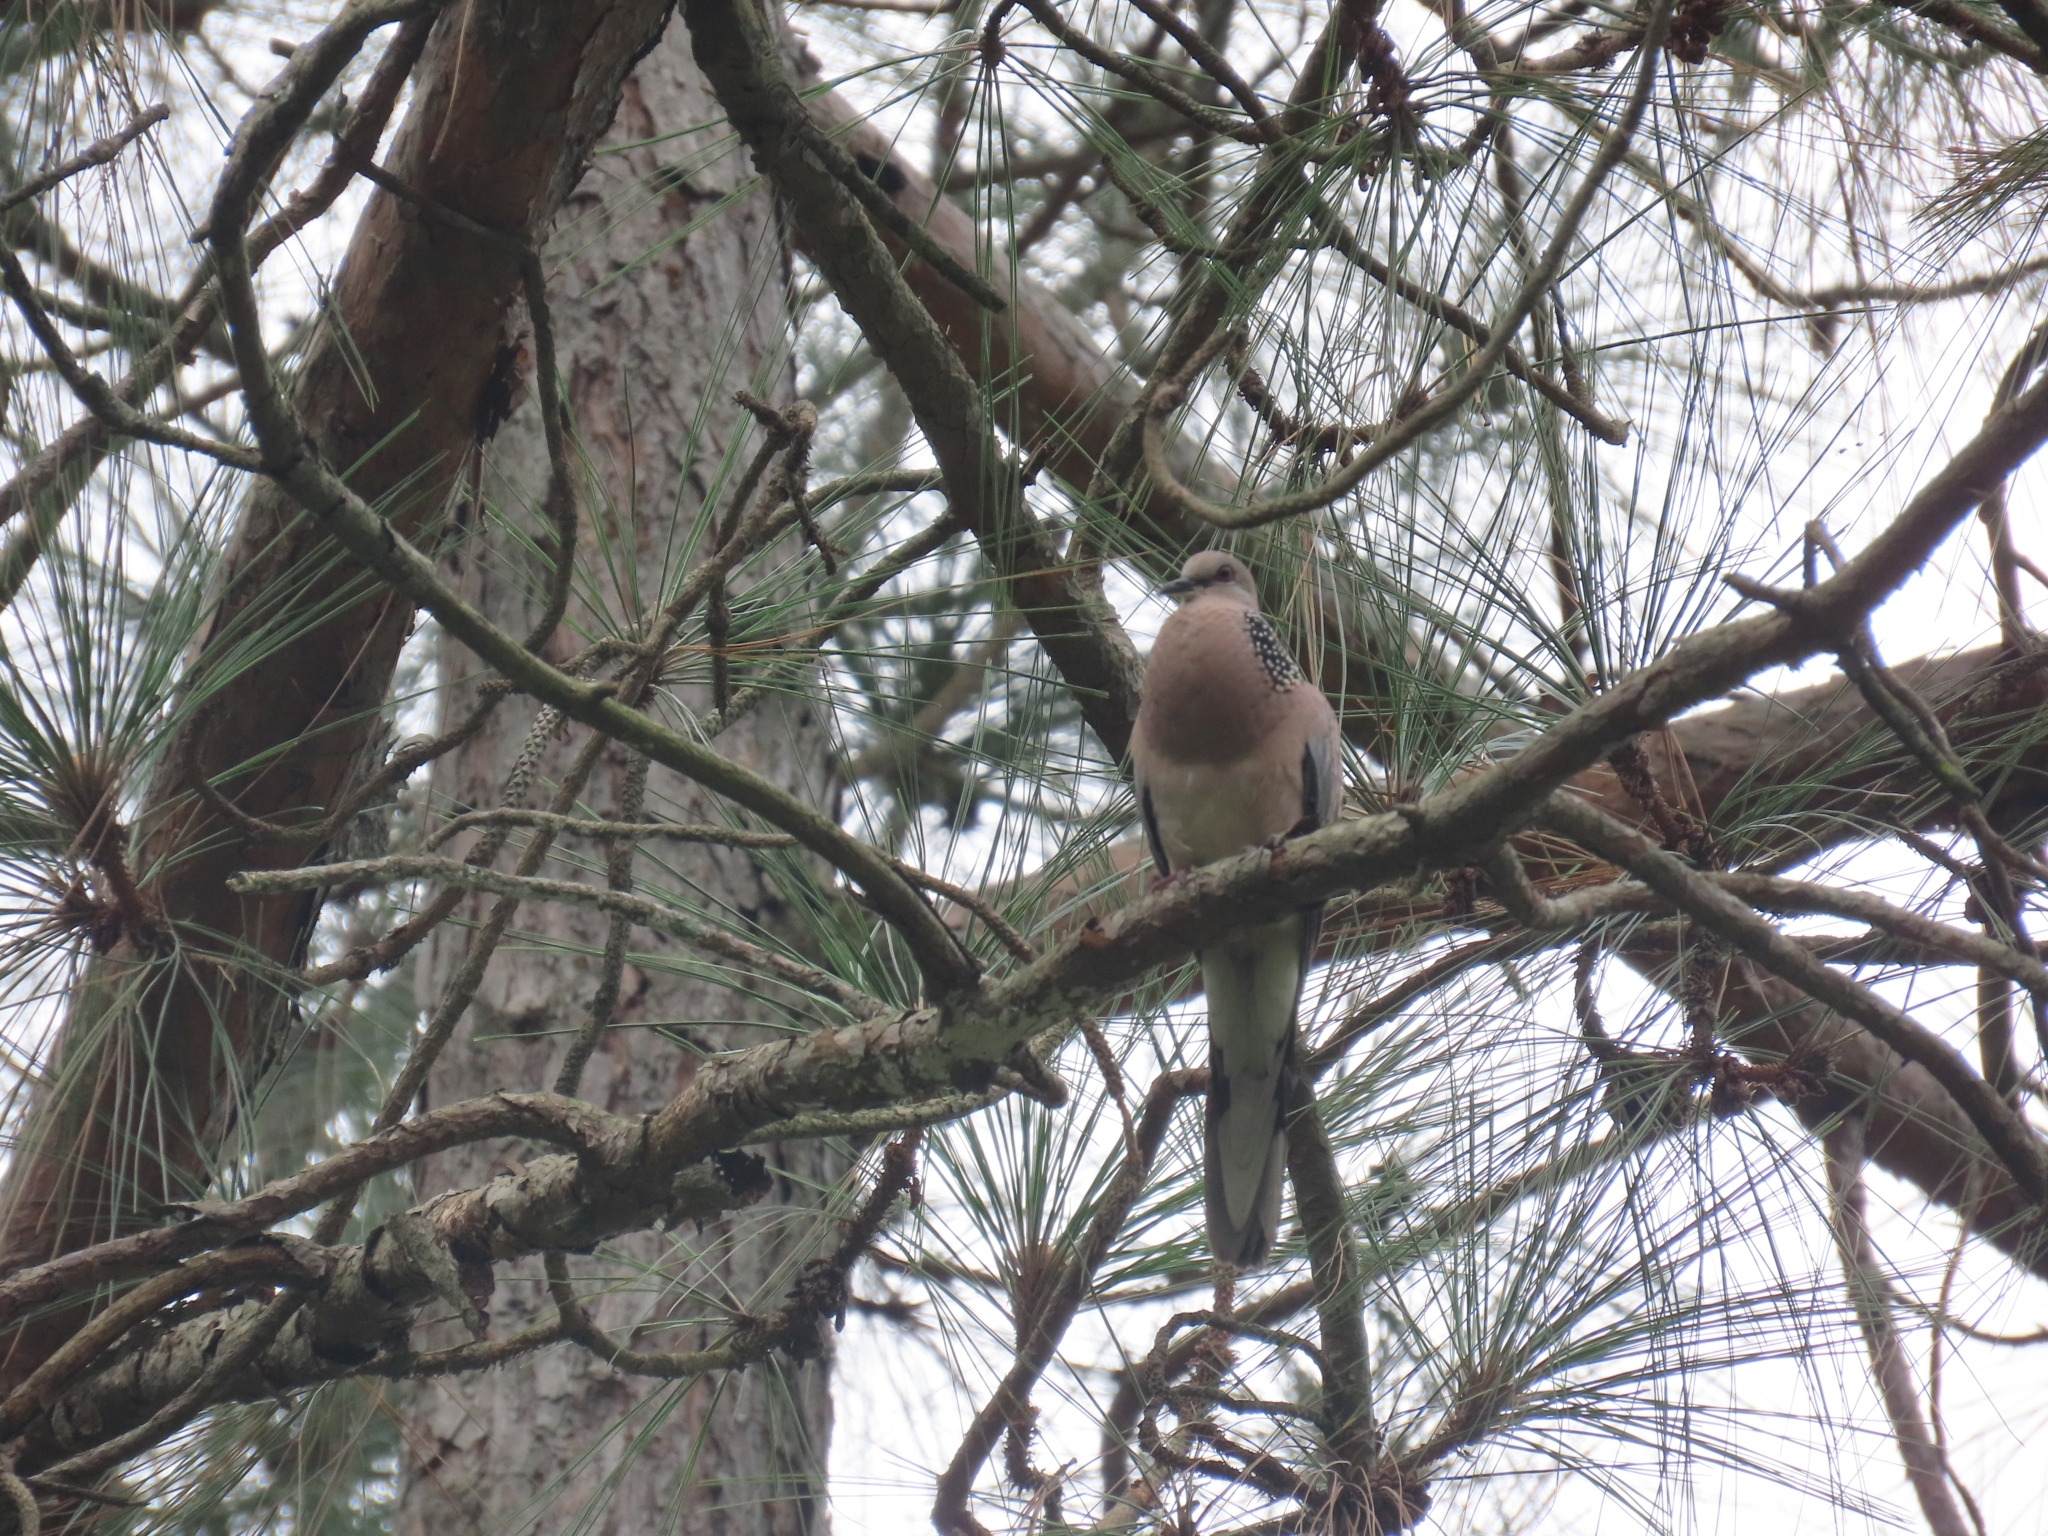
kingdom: Animalia
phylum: Chordata
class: Aves
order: Columbiformes
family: Columbidae
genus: Spilopelia
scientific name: Spilopelia chinensis
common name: Spotted dove
